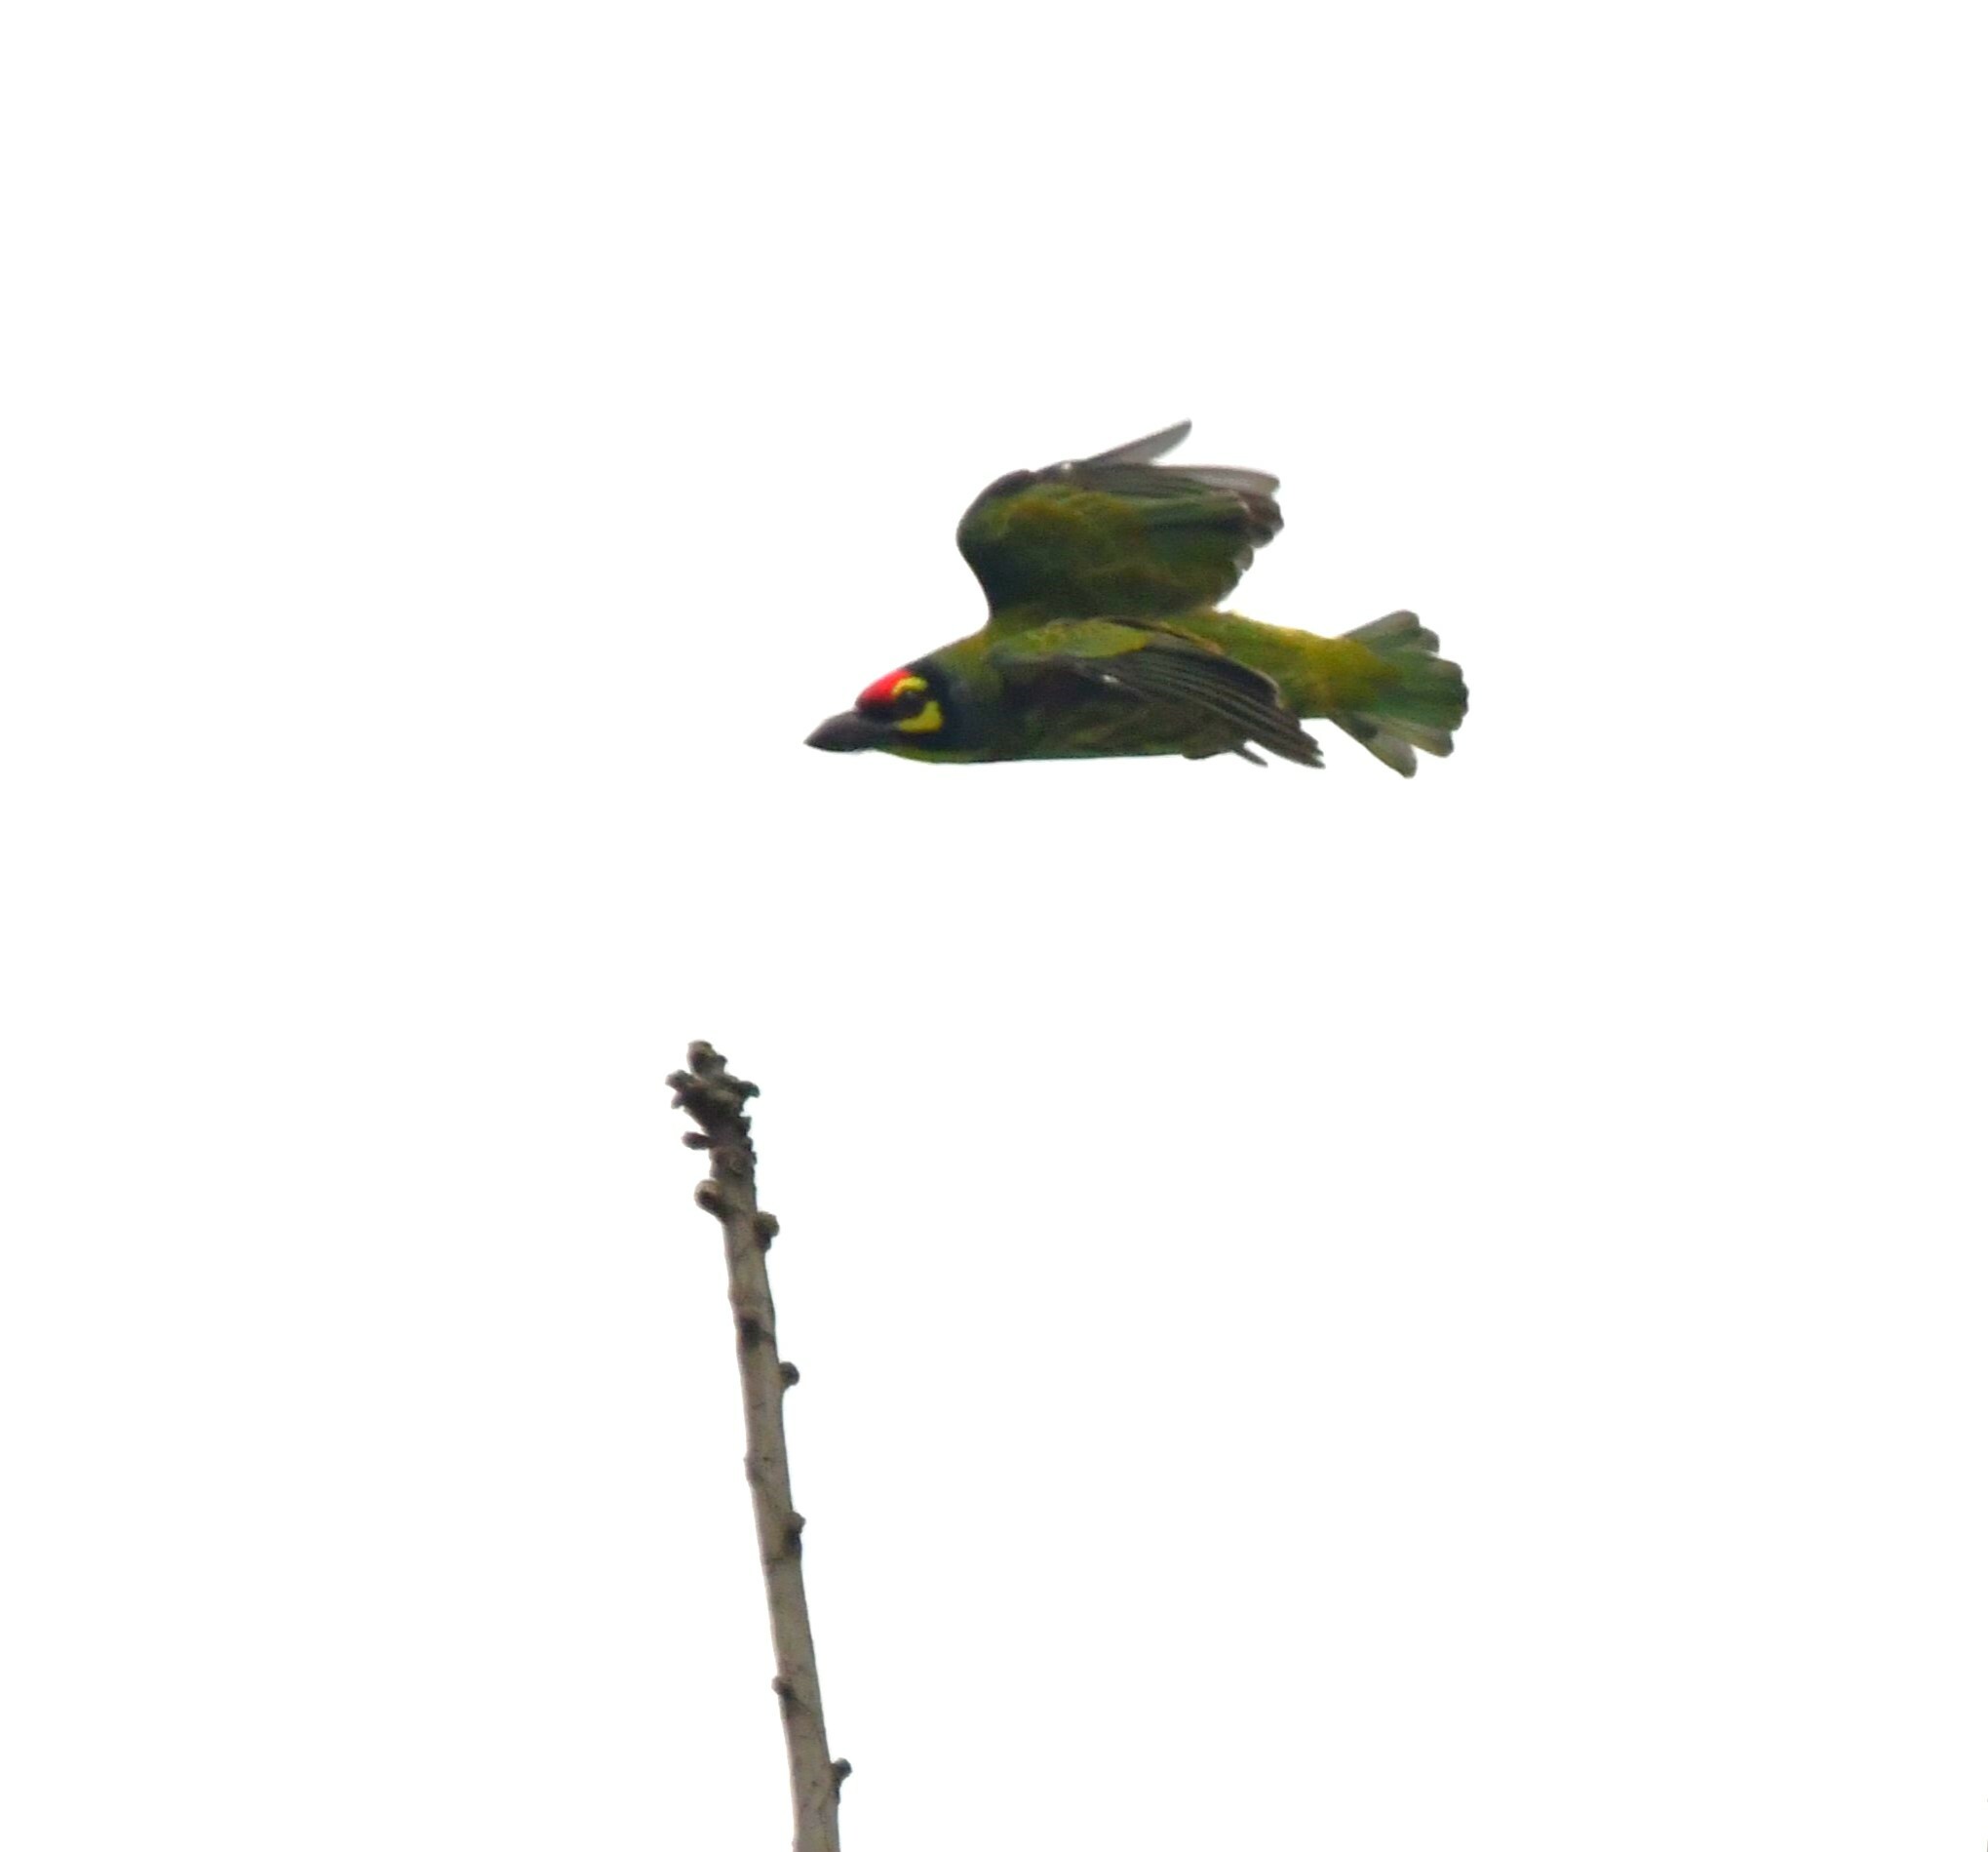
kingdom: Animalia
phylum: Chordata
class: Aves
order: Piciformes
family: Megalaimidae
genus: Psilopogon
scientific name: Psilopogon haemacephalus
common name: Coppersmith barbet
